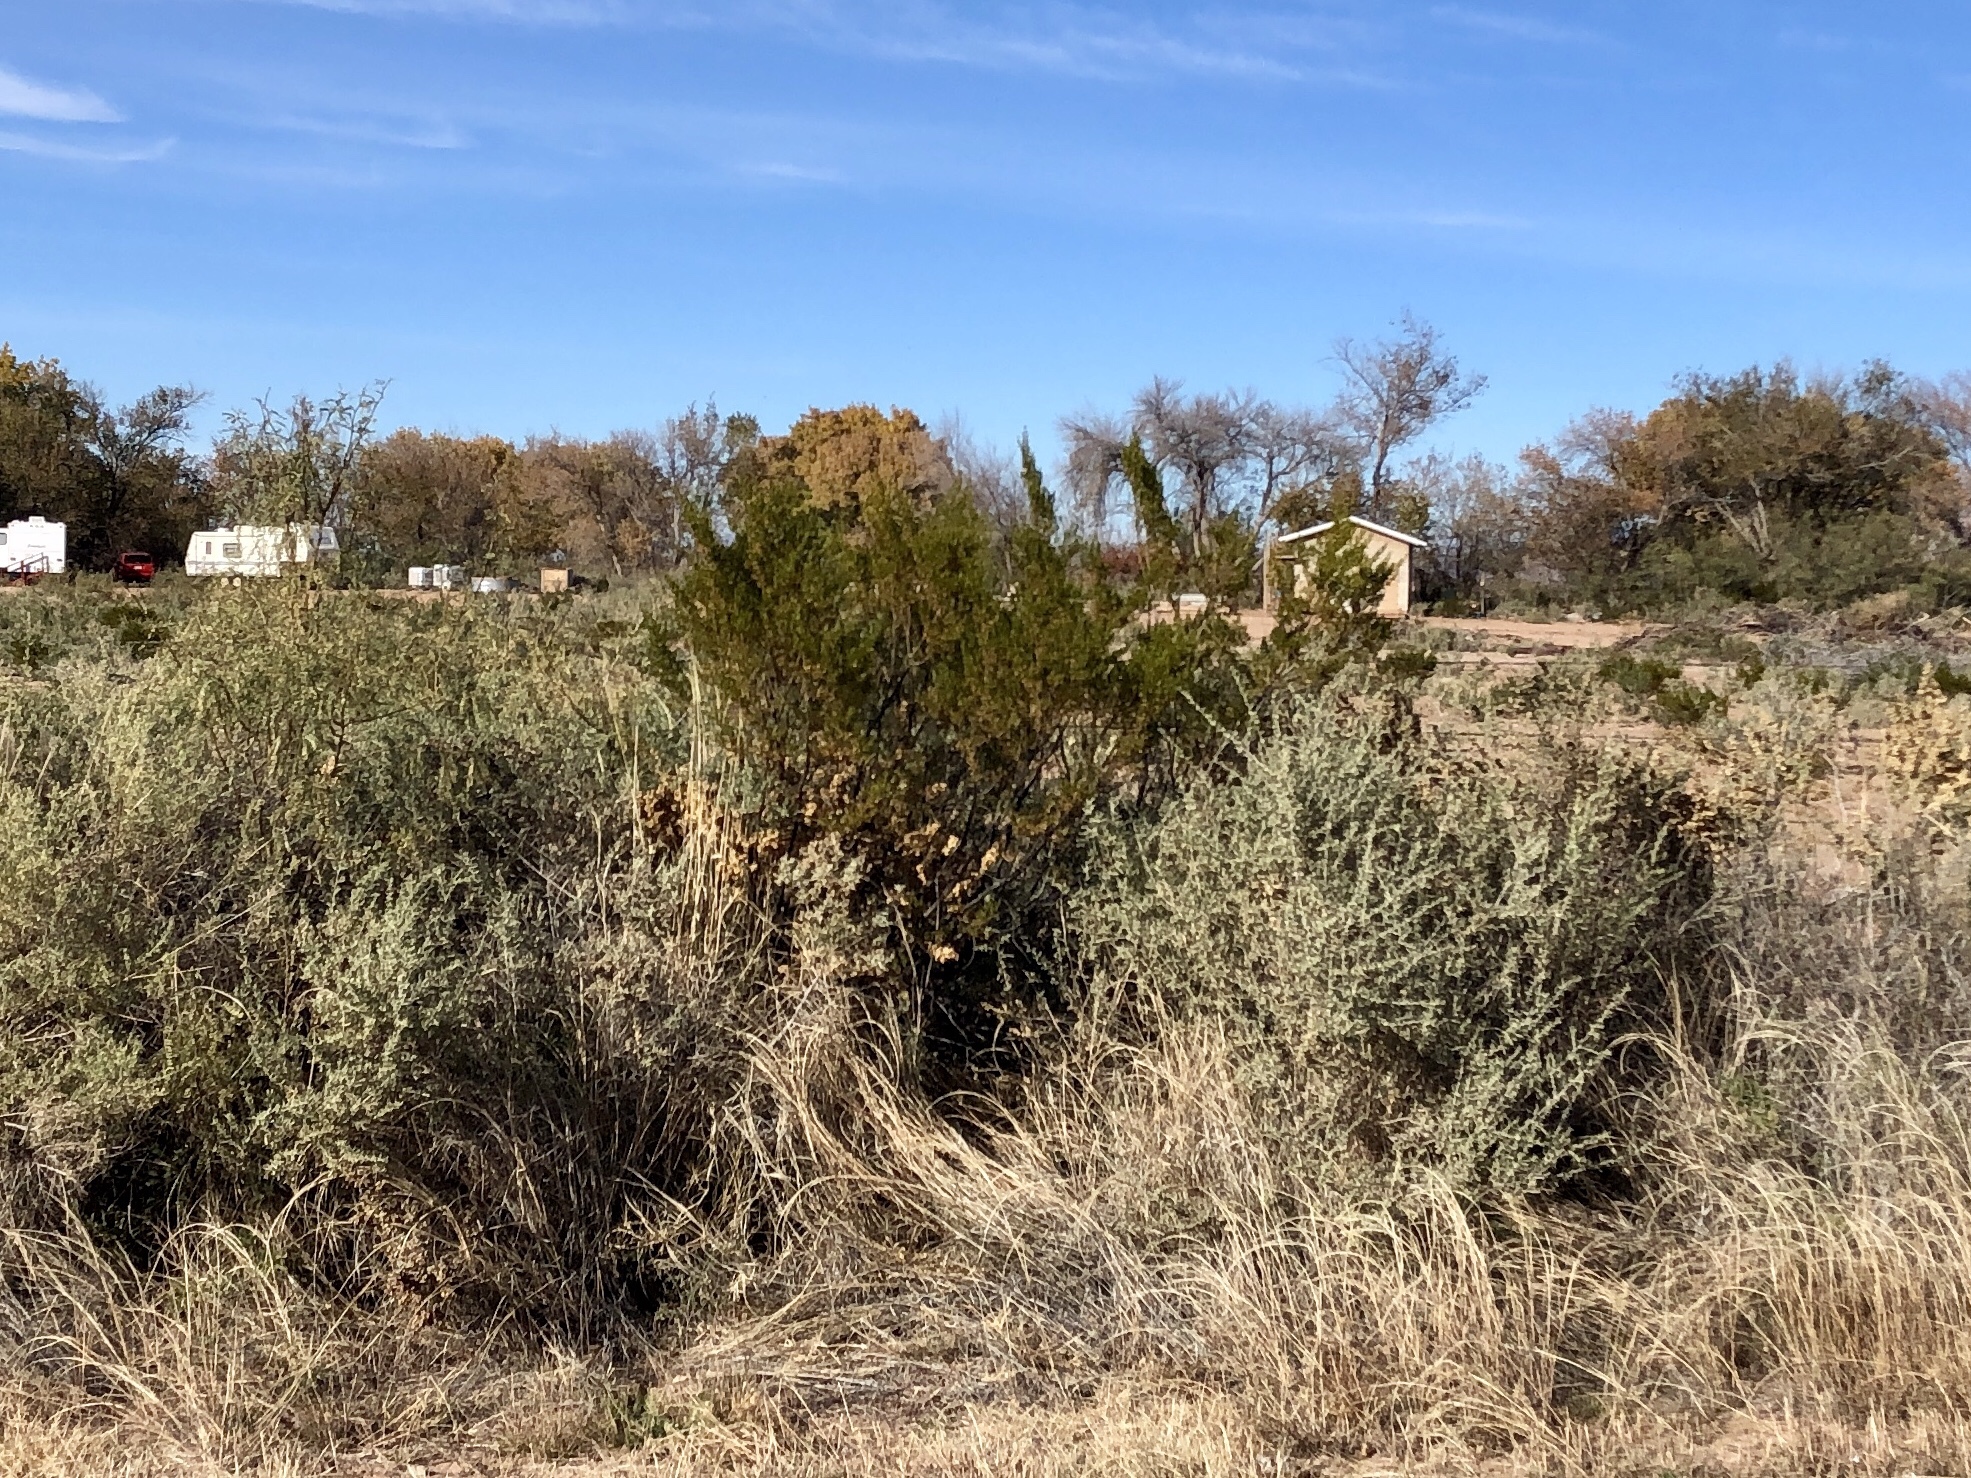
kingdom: Plantae
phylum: Tracheophyta
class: Magnoliopsida
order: Zygophyllales
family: Zygophyllaceae
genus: Larrea
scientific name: Larrea tridentata
